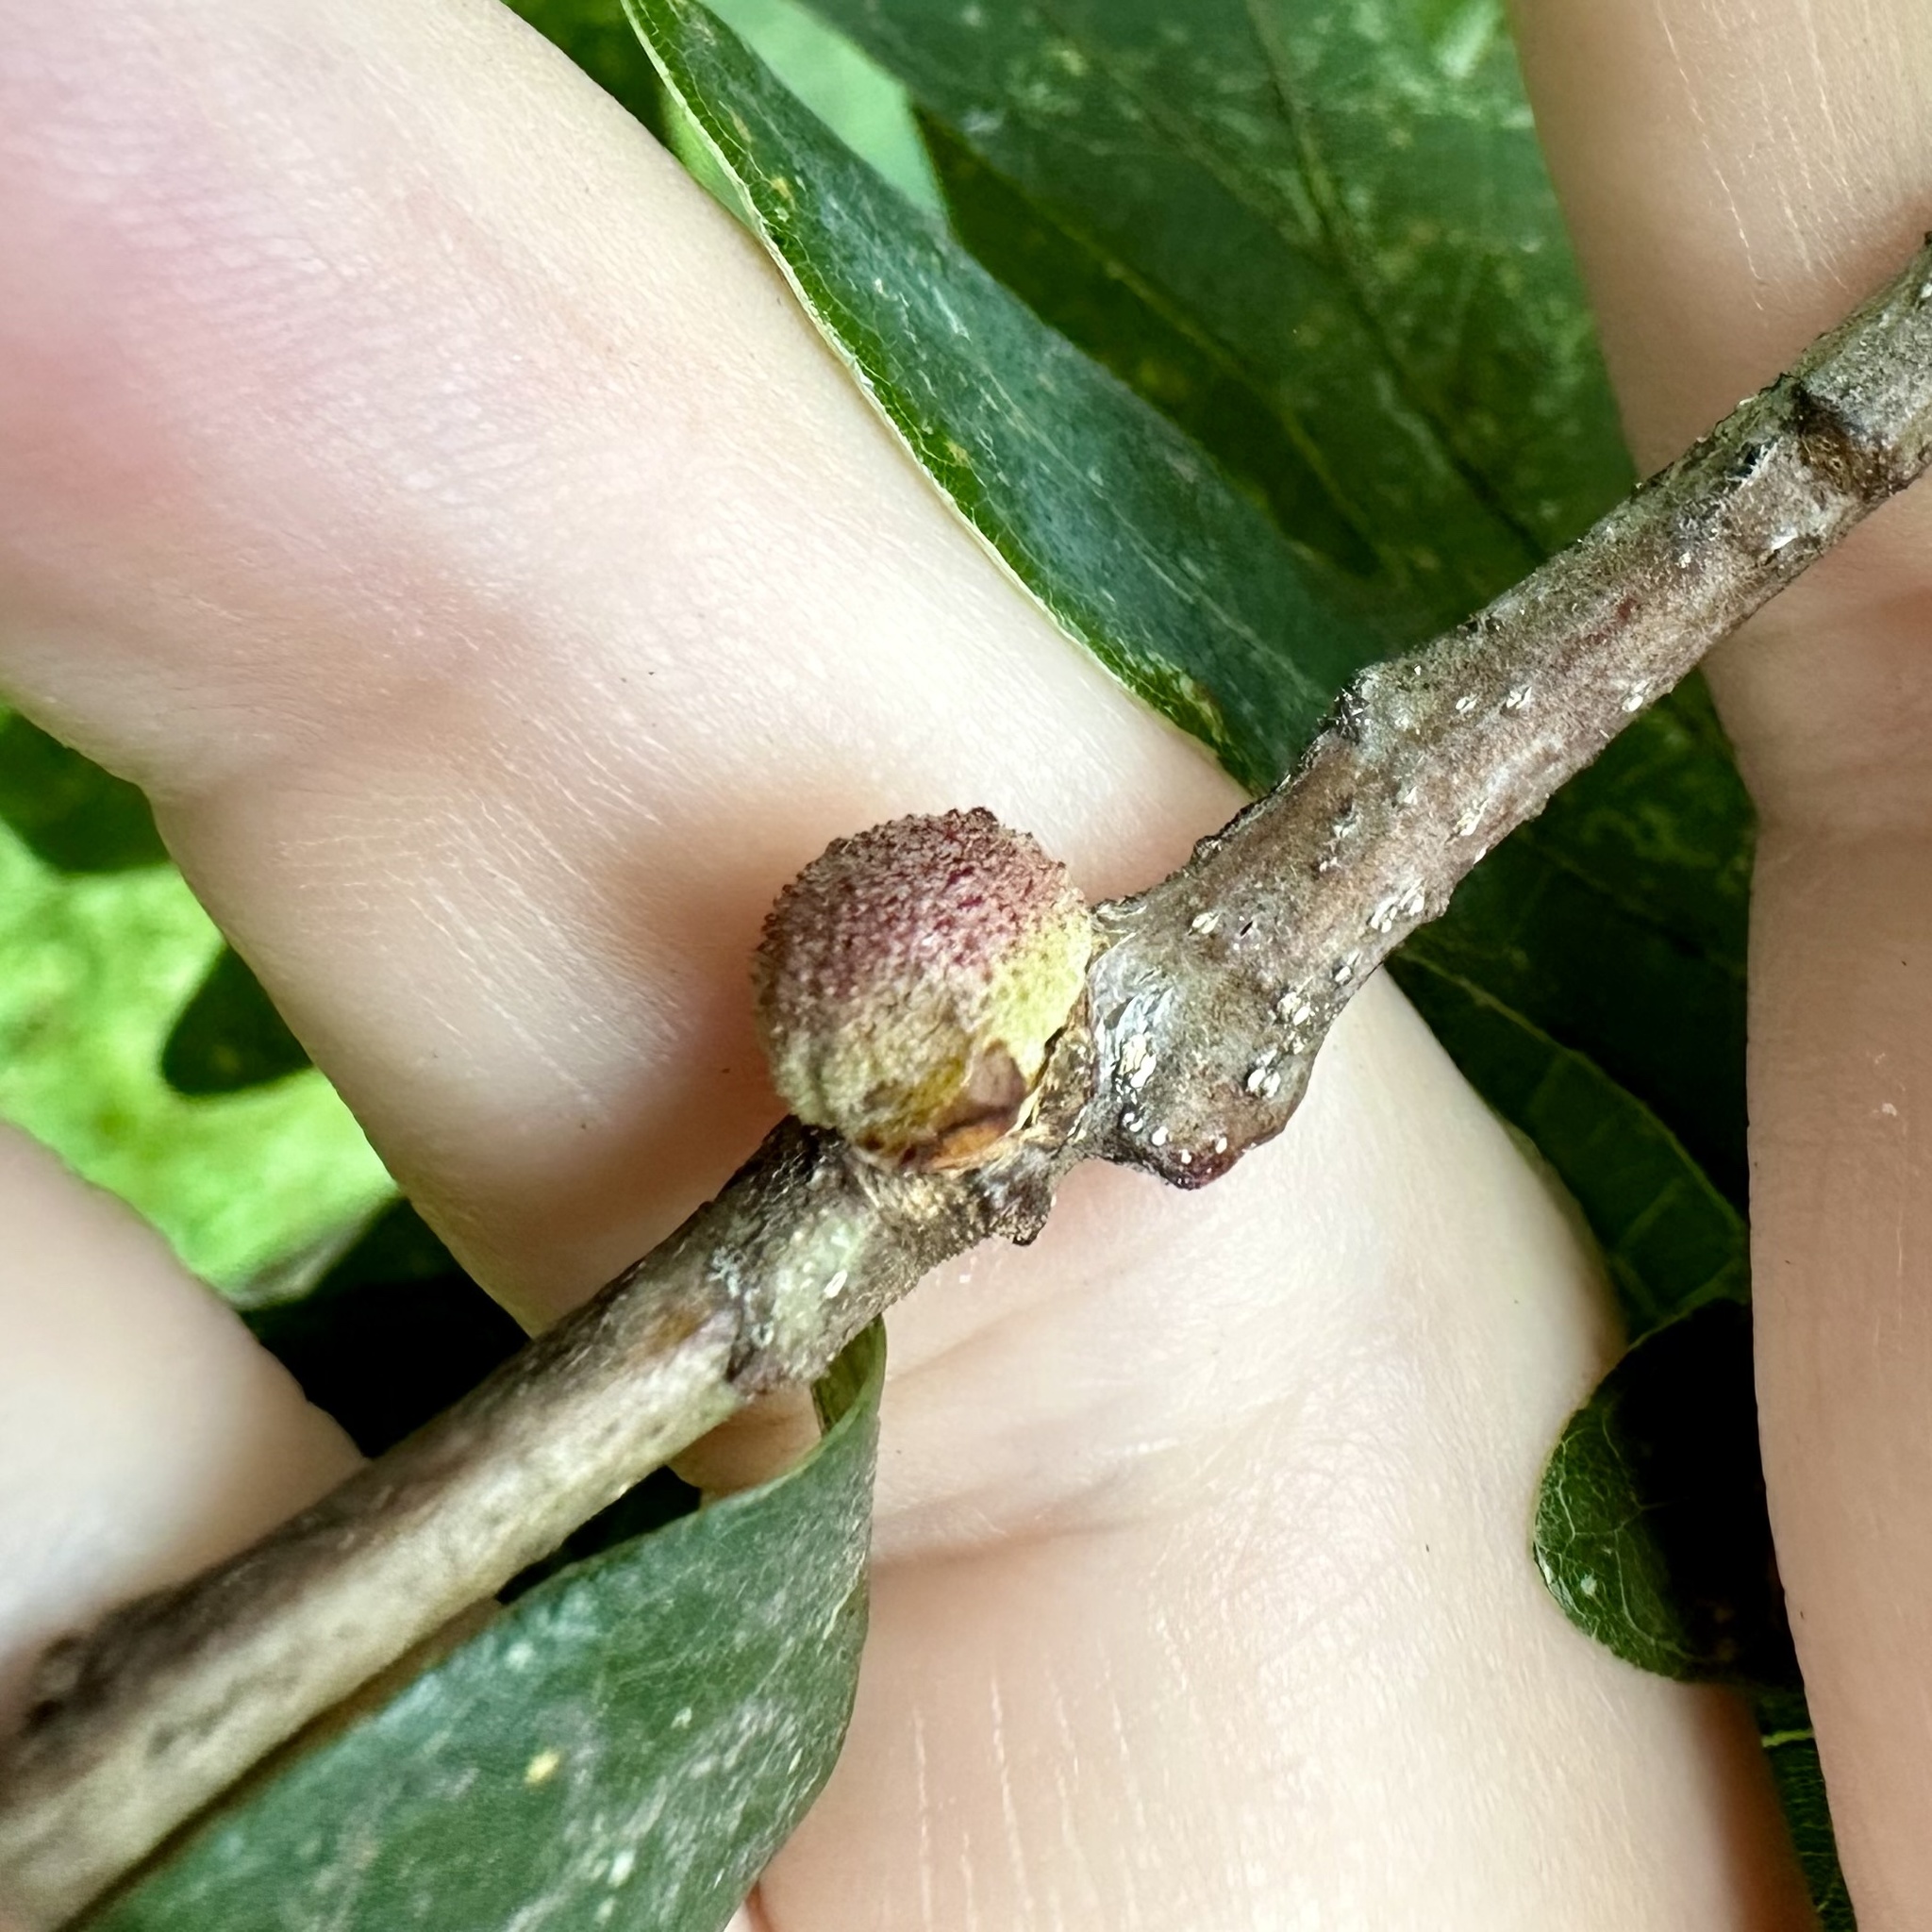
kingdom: Animalia
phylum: Arthropoda
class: Insecta
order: Hymenoptera
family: Cynipidae
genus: Disholcaspis
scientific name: Disholcaspis quercusglobulus
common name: Round bullet gall wasp
